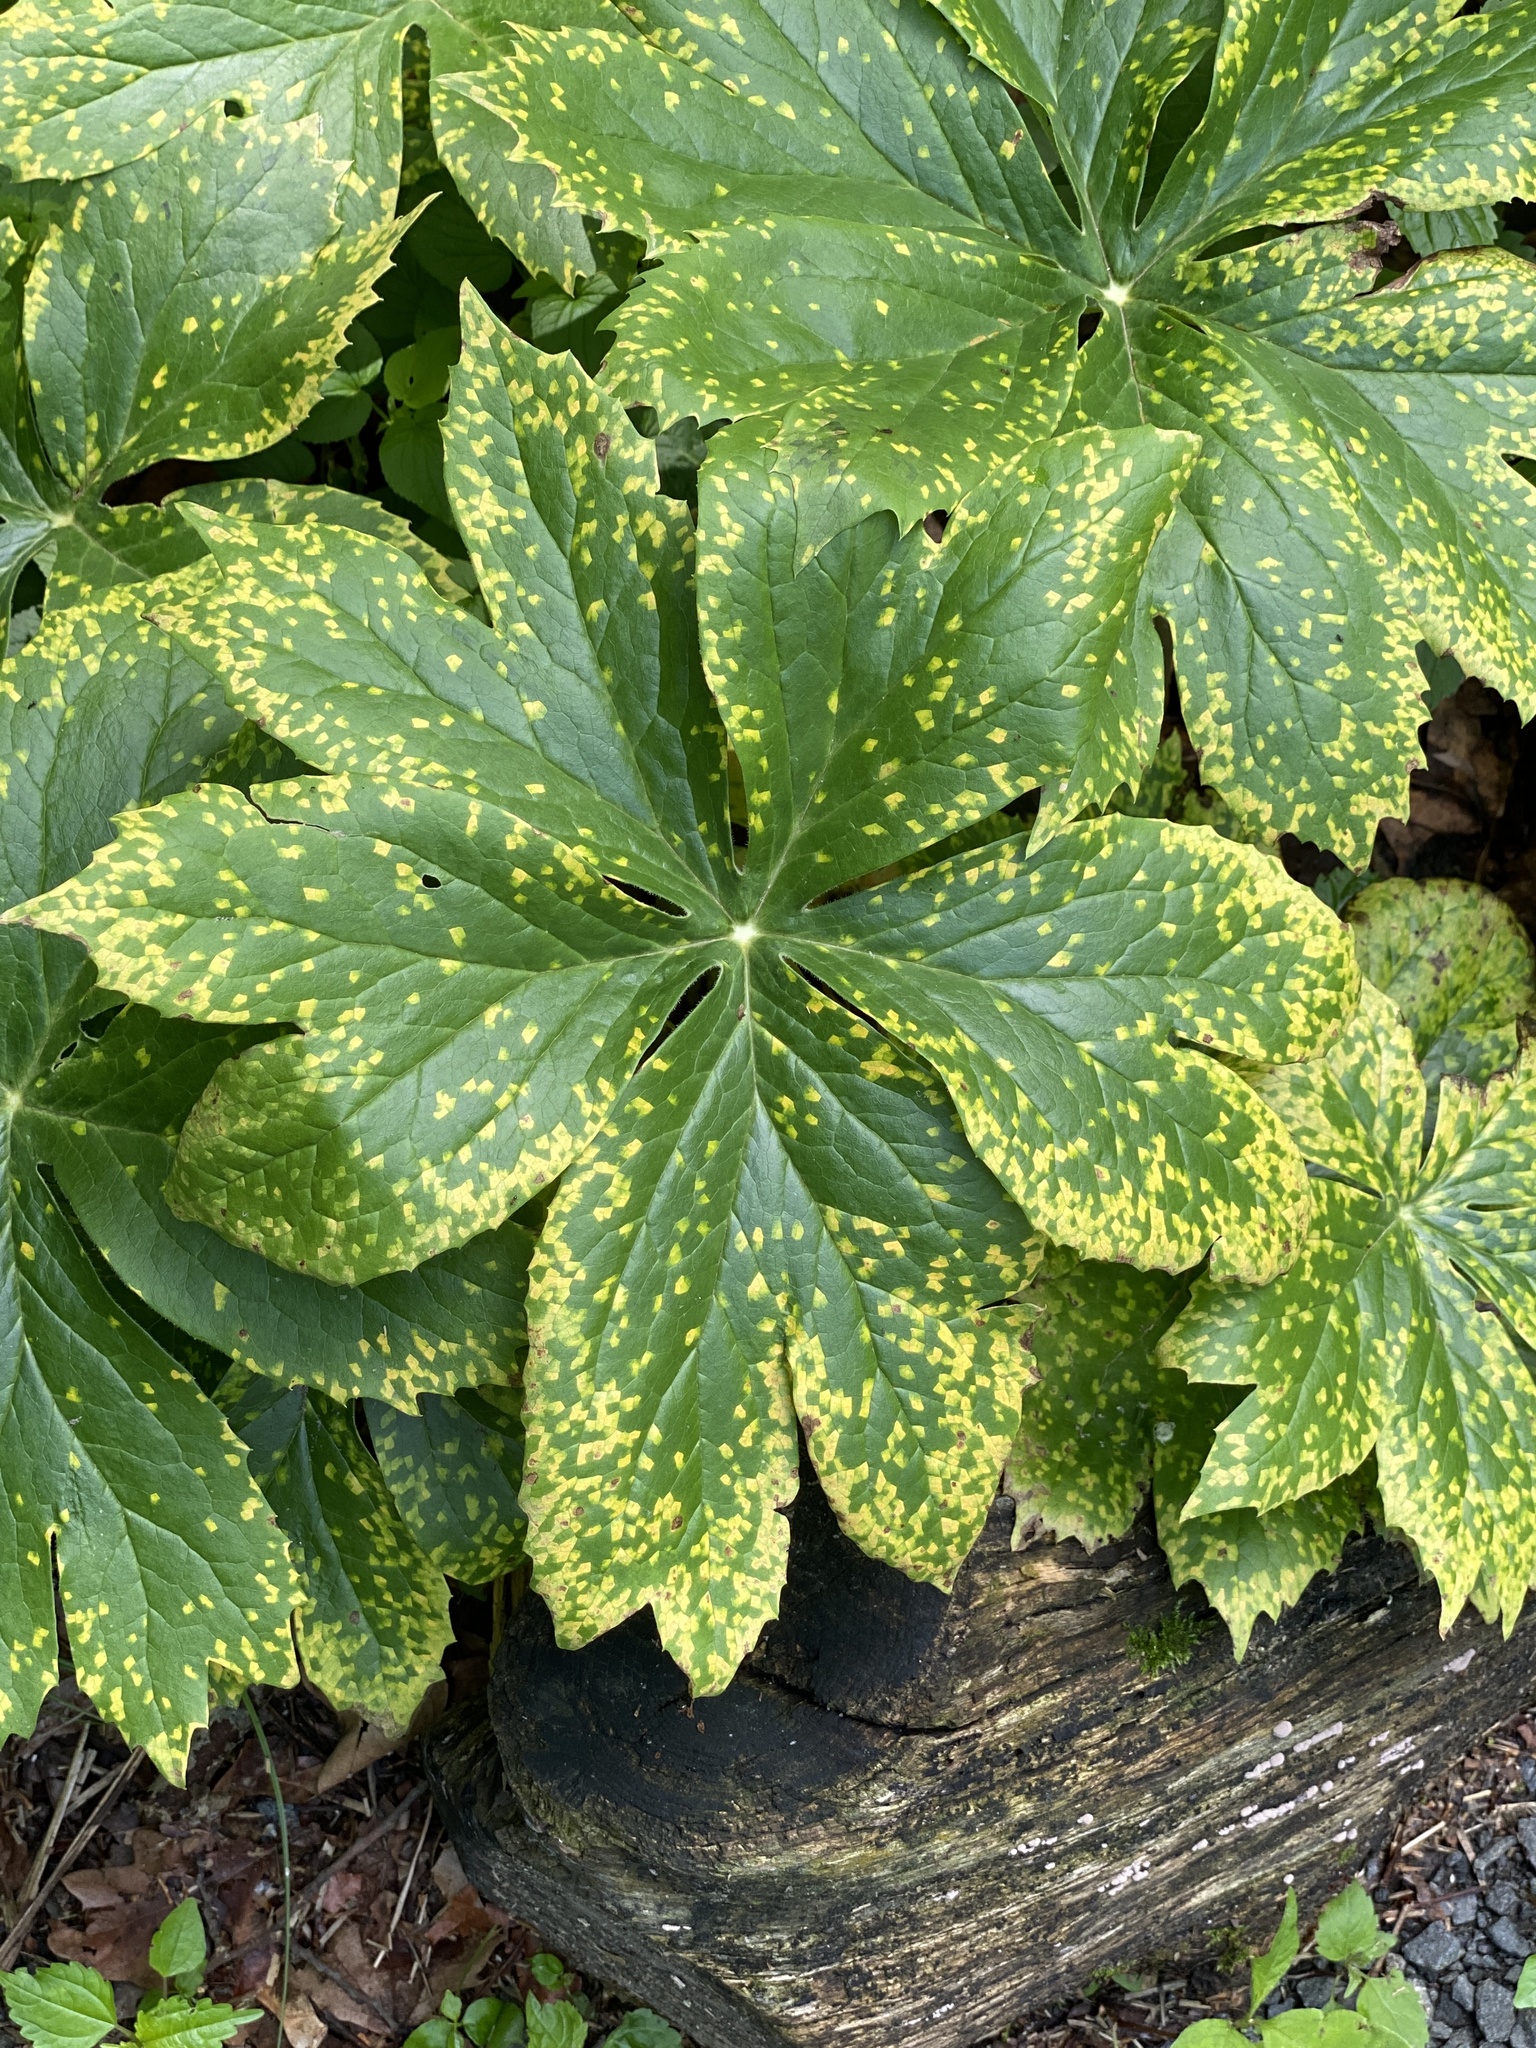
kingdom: Fungi
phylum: Basidiomycota
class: Pucciniomycetes
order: Pucciniales
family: Pucciniaceae
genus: Puccinia
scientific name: Puccinia podophylli
